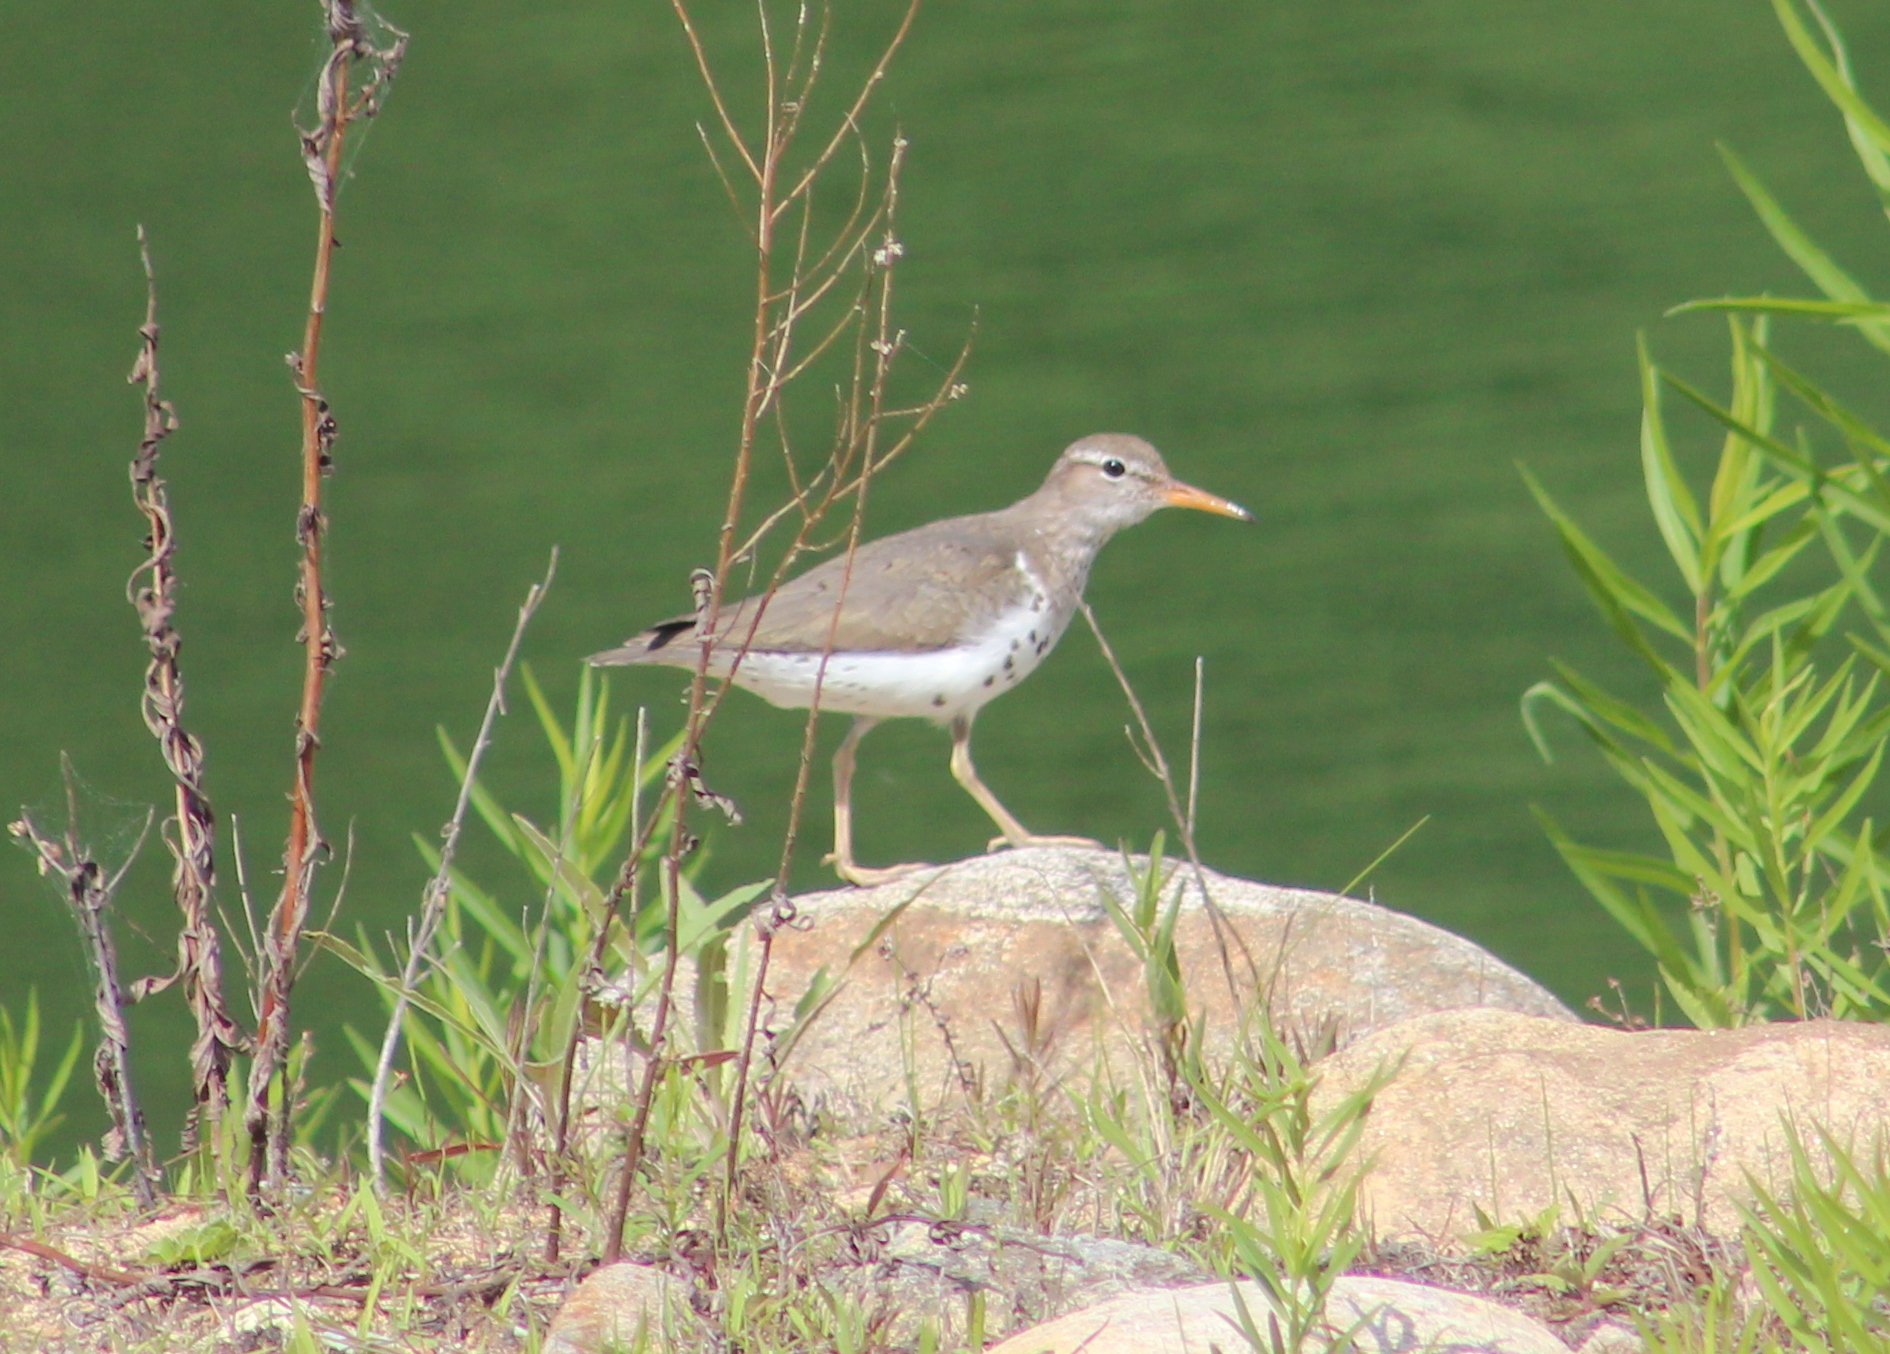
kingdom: Animalia
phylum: Chordata
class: Aves
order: Charadriiformes
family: Scolopacidae
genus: Actitis
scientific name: Actitis macularius
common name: Spotted sandpiper
